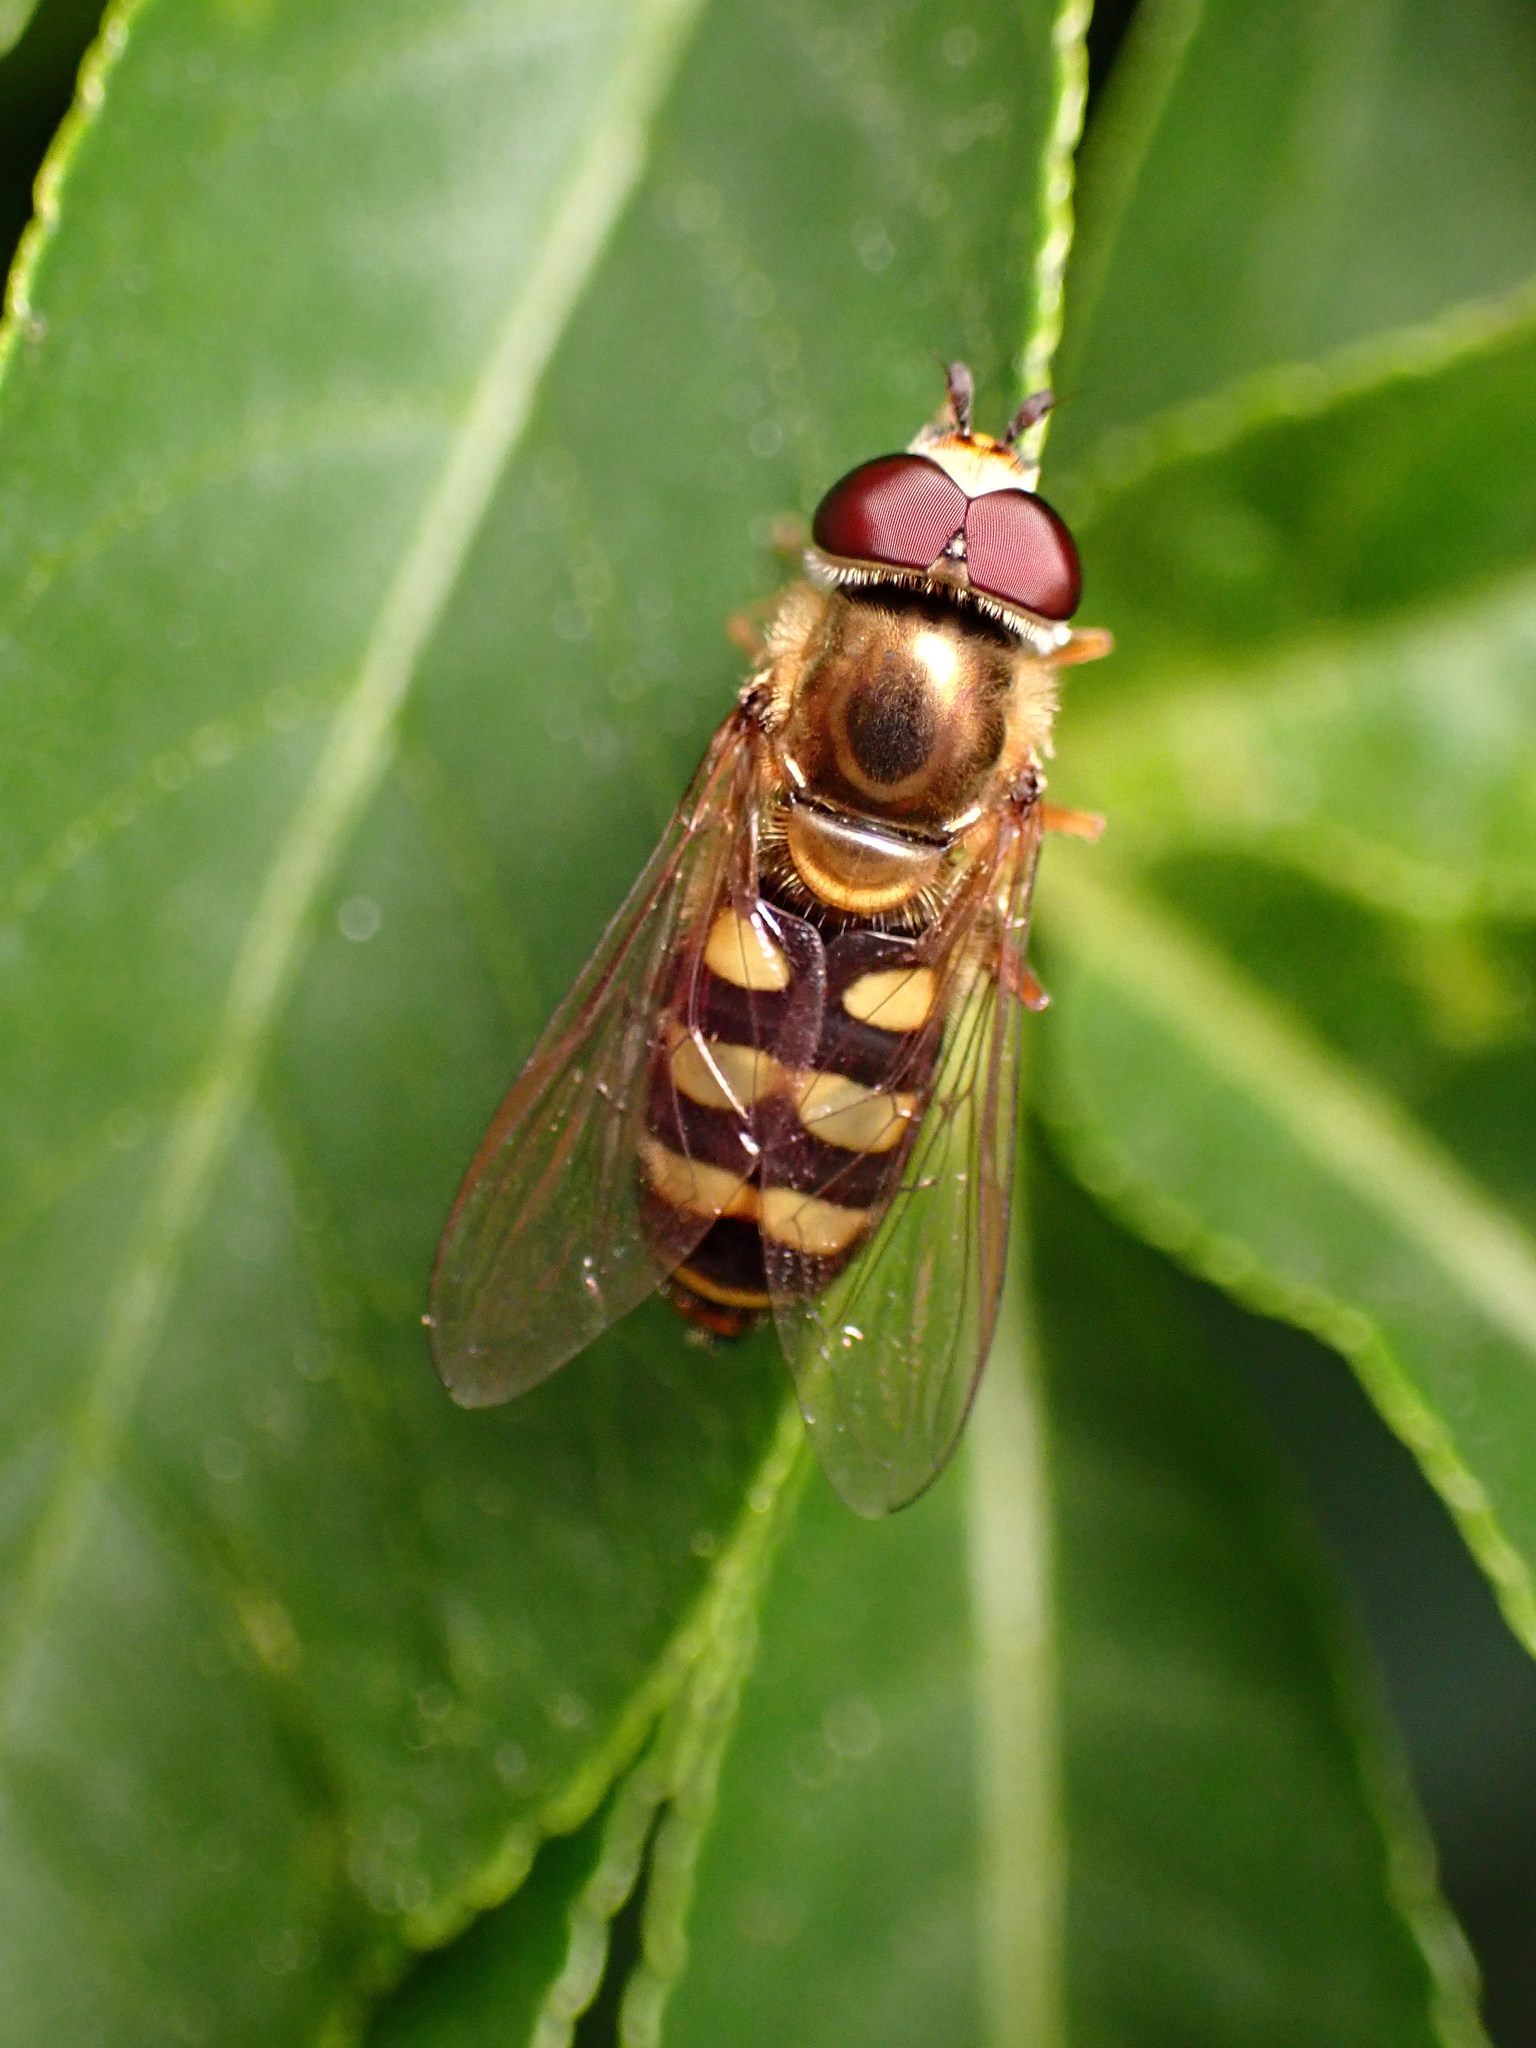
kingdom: Animalia
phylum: Arthropoda
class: Insecta
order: Diptera
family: Syrphidae
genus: Eupeodes
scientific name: Eupeodes fumipennis
